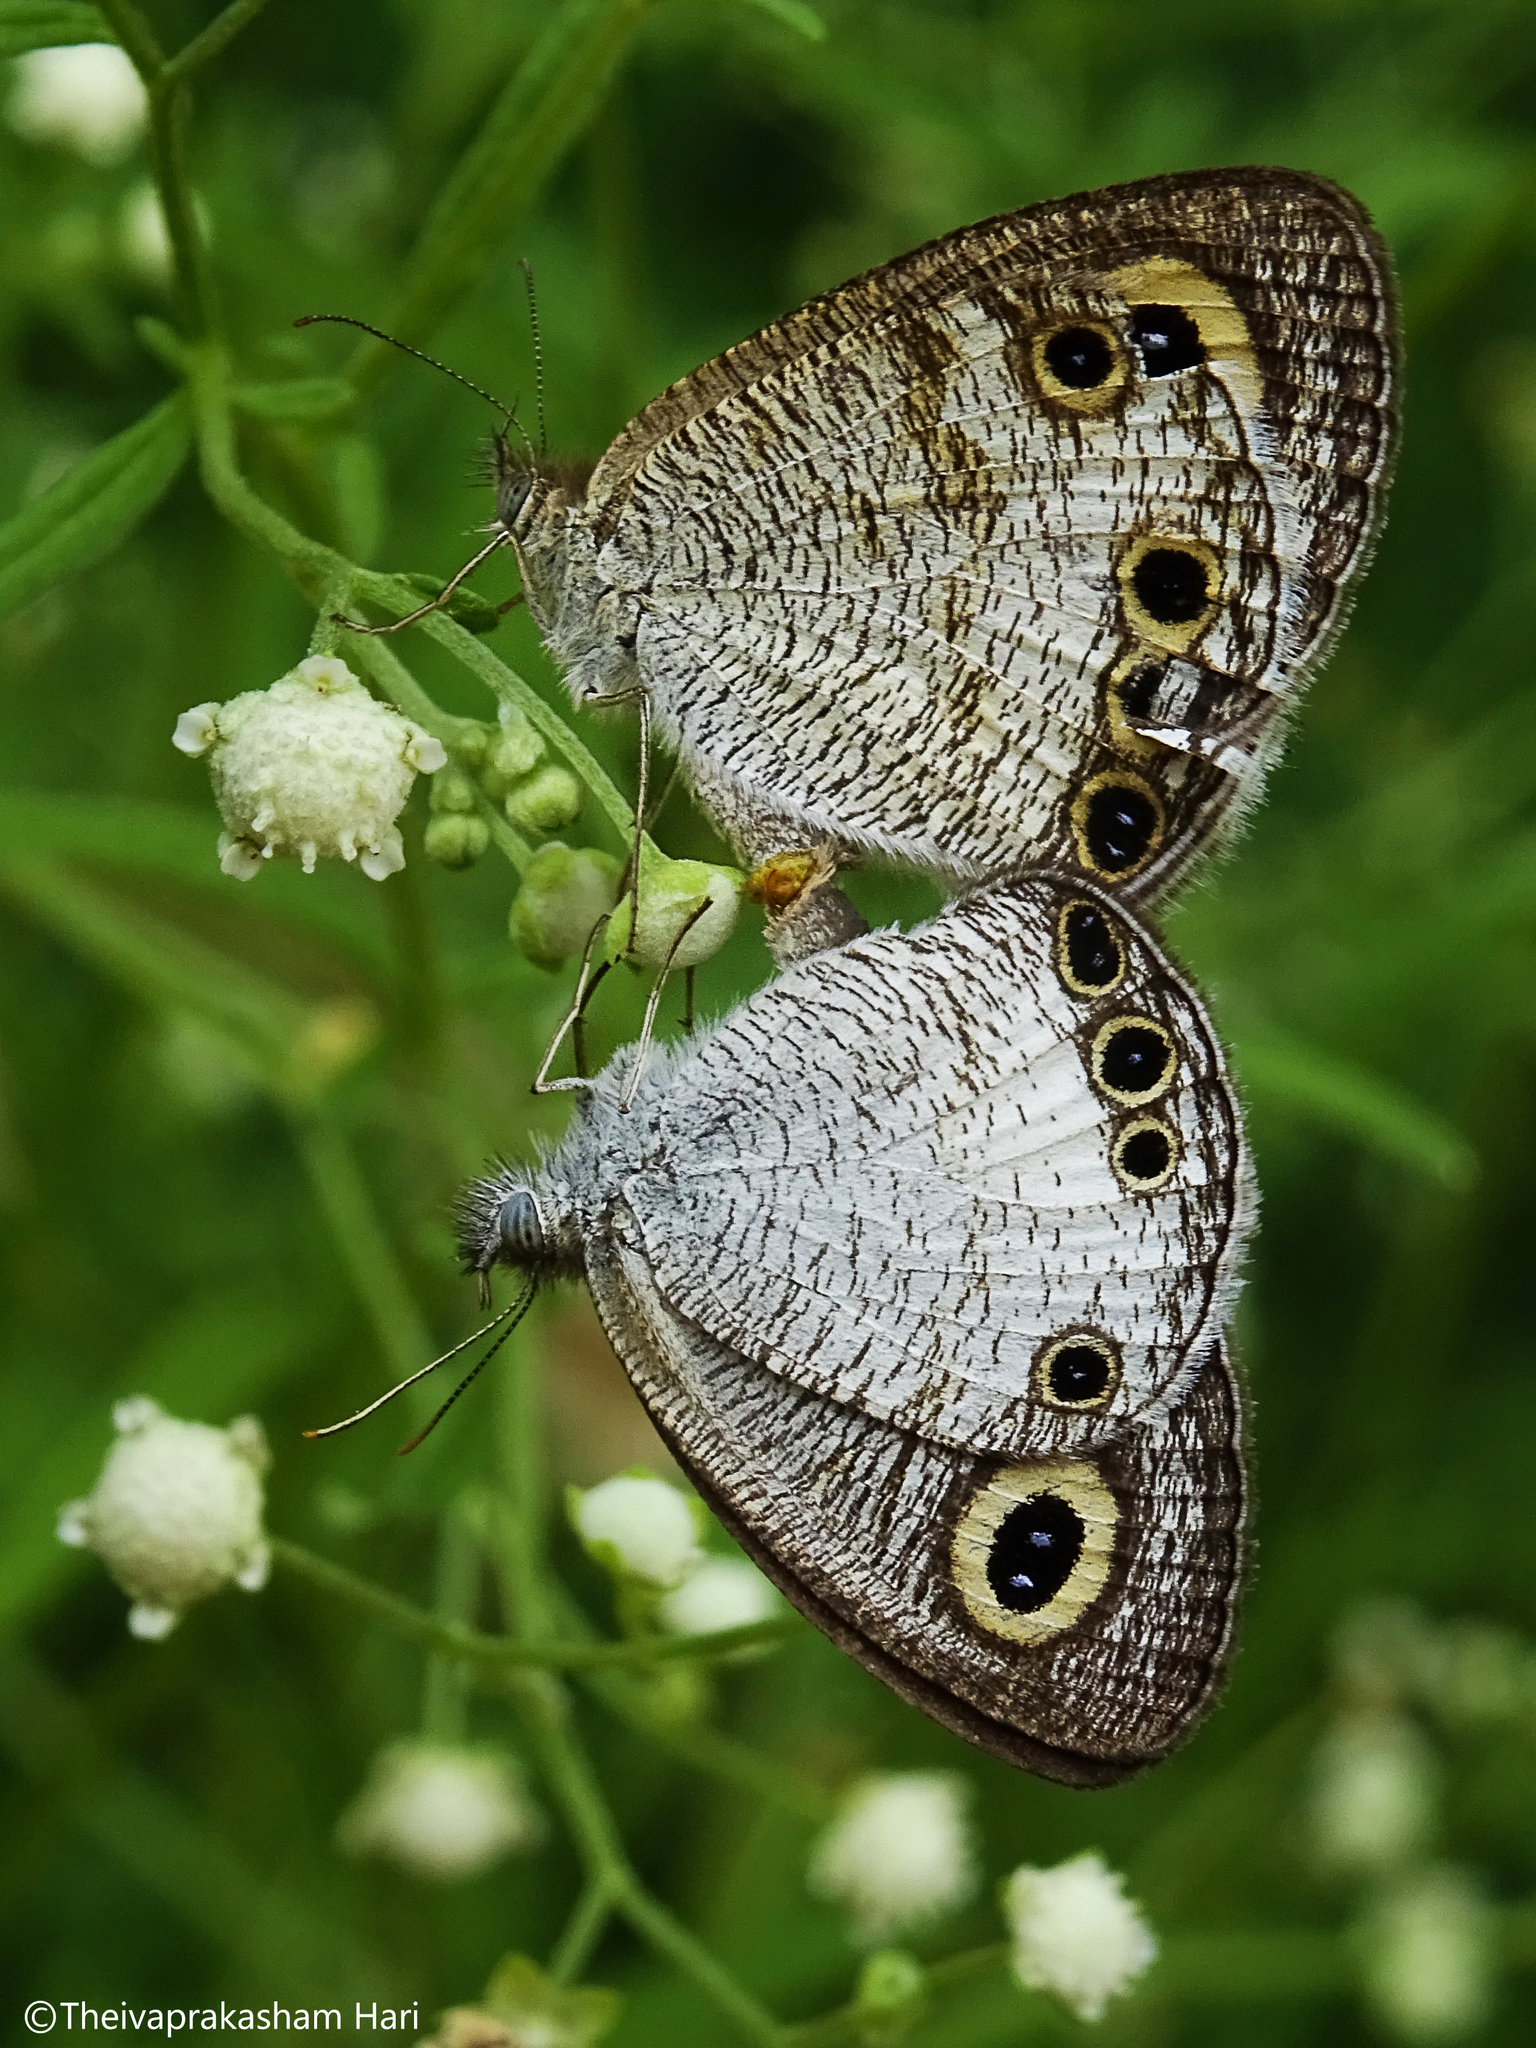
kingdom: Animalia
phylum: Arthropoda
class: Insecta
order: Lepidoptera
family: Nymphalidae
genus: Ypthima
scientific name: Ypthima ceylonica
